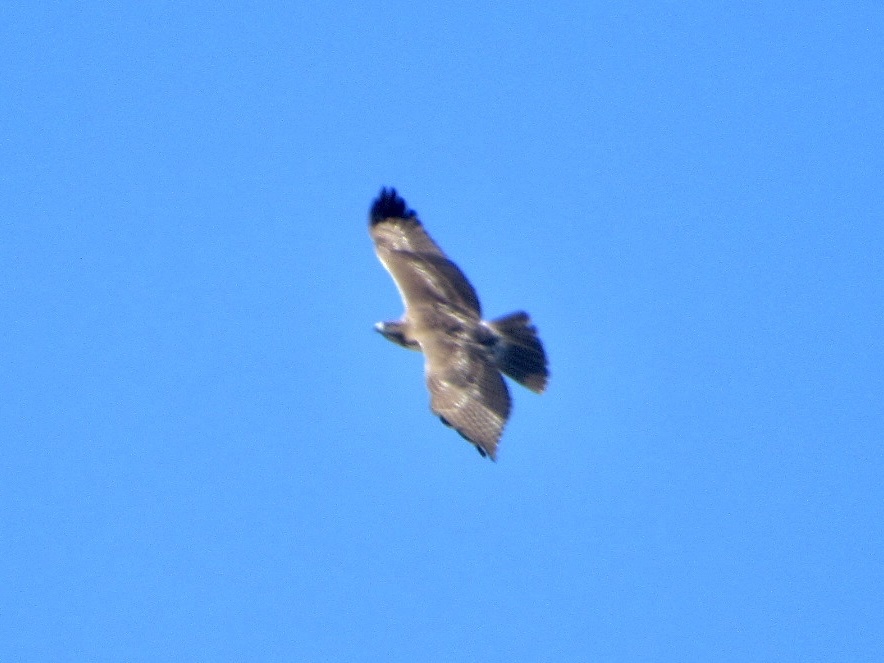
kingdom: Animalia
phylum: Chordata
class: Aves
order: Accipitriformes
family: Accipitridae
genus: Buteo
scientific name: Buteo jamaicensis
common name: Red-tailed hawk
